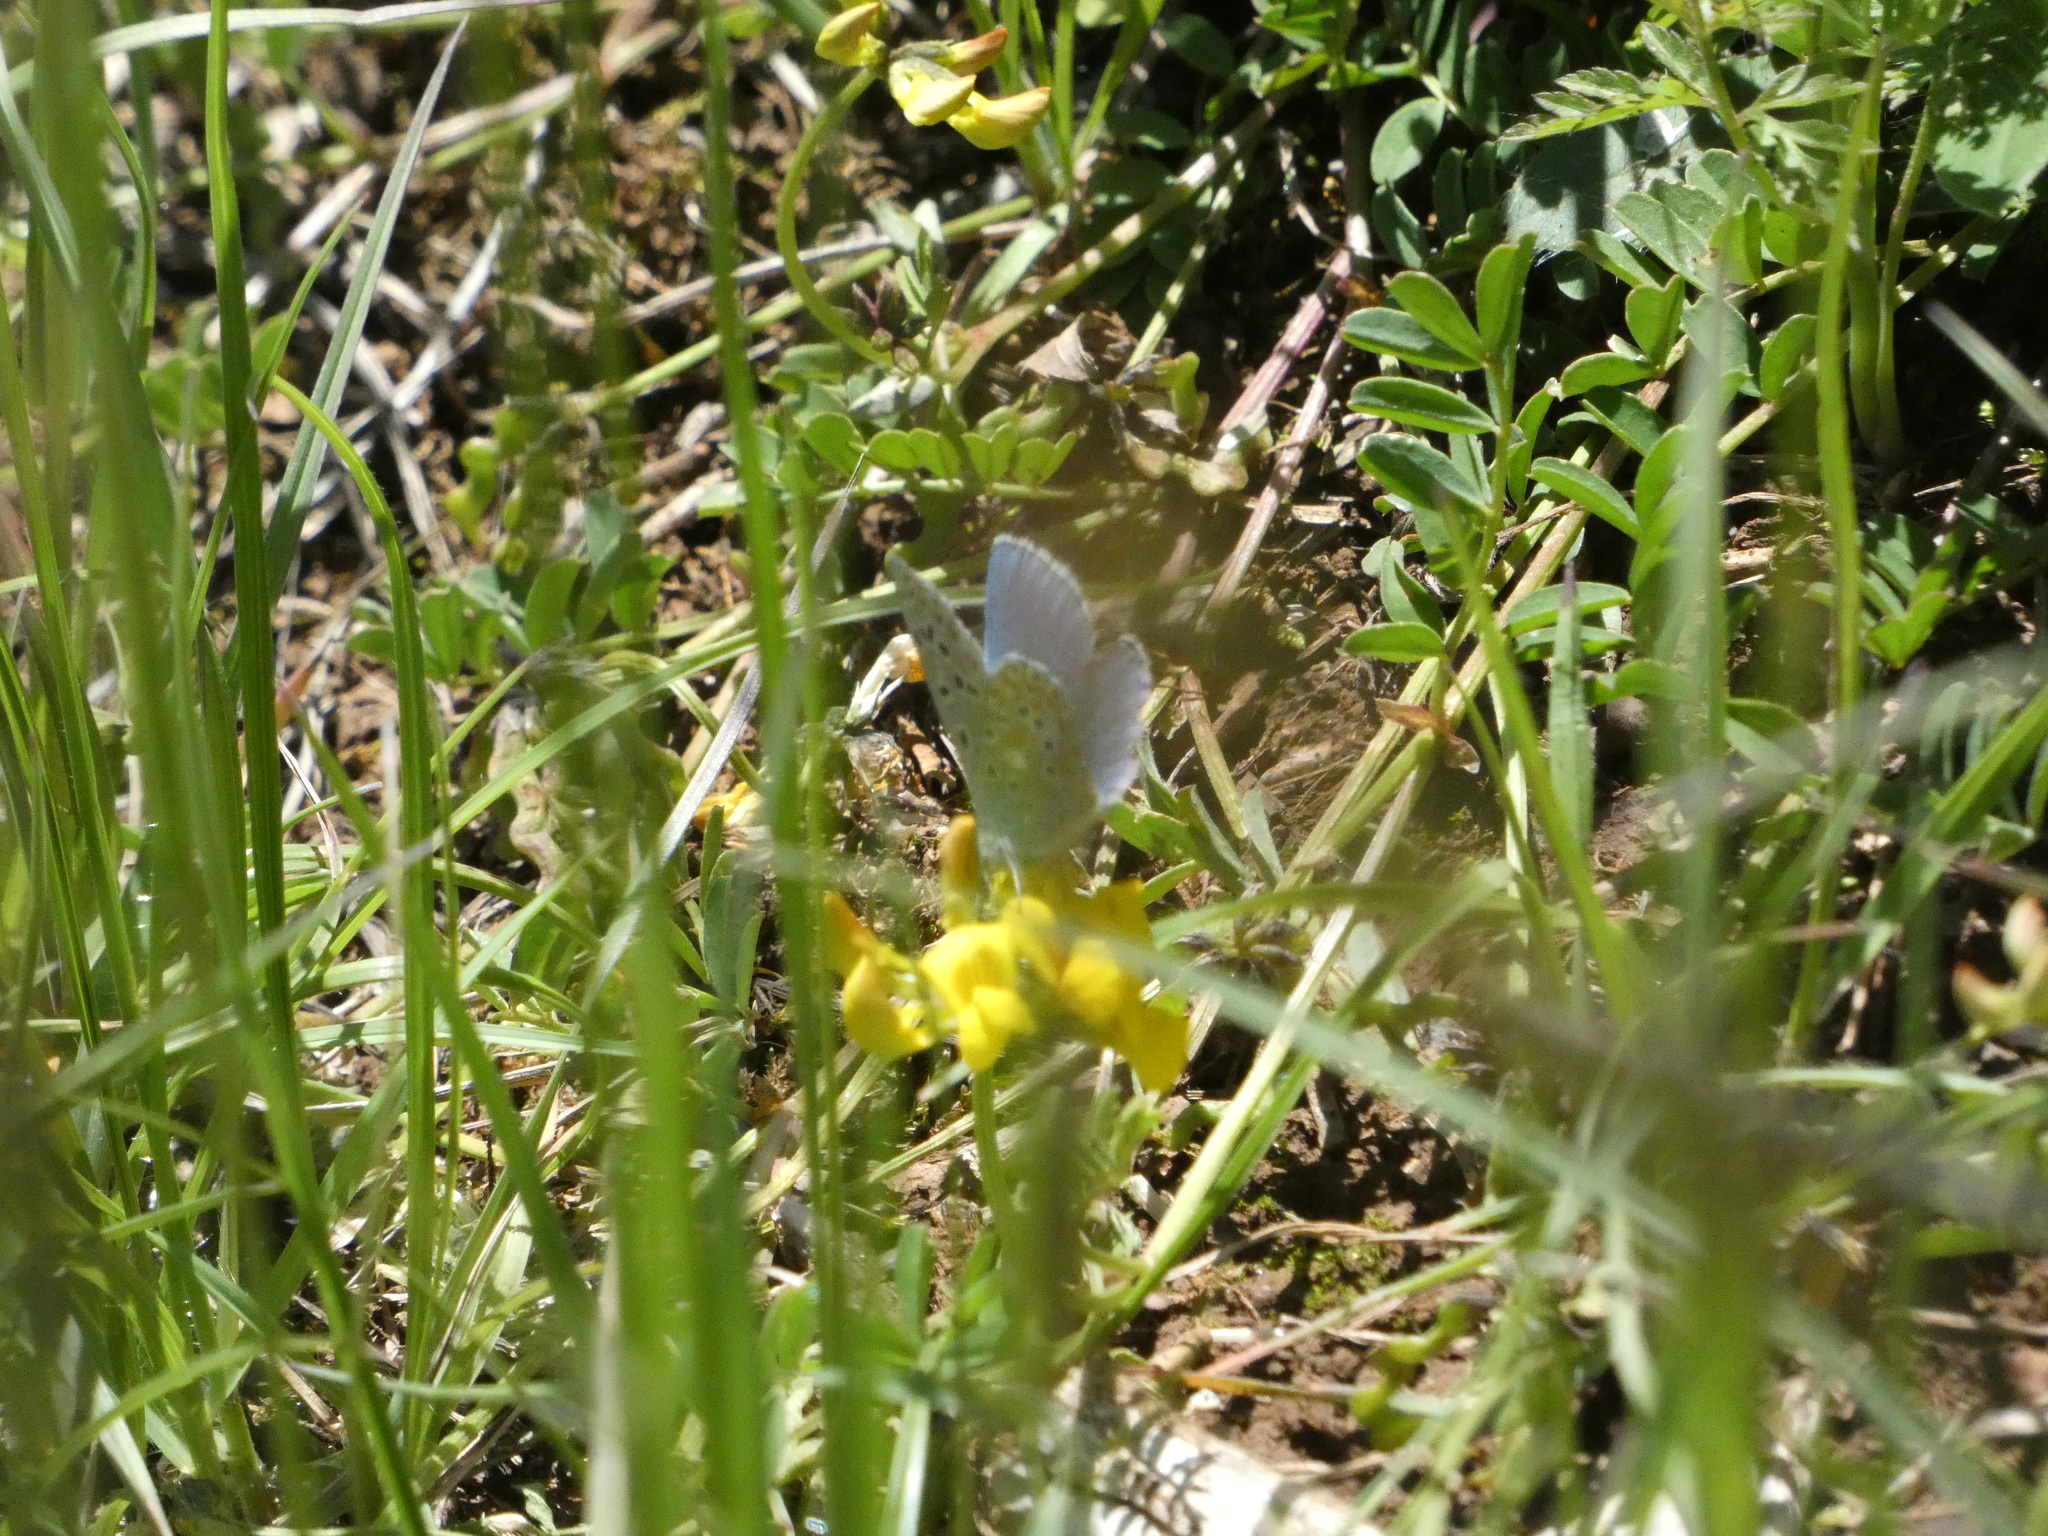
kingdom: Animalia
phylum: Arthropoda
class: Insecta
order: Lepidoptera
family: Lycaenidae
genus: Lysandra
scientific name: Lysandra bellargus
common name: Adonis blue
